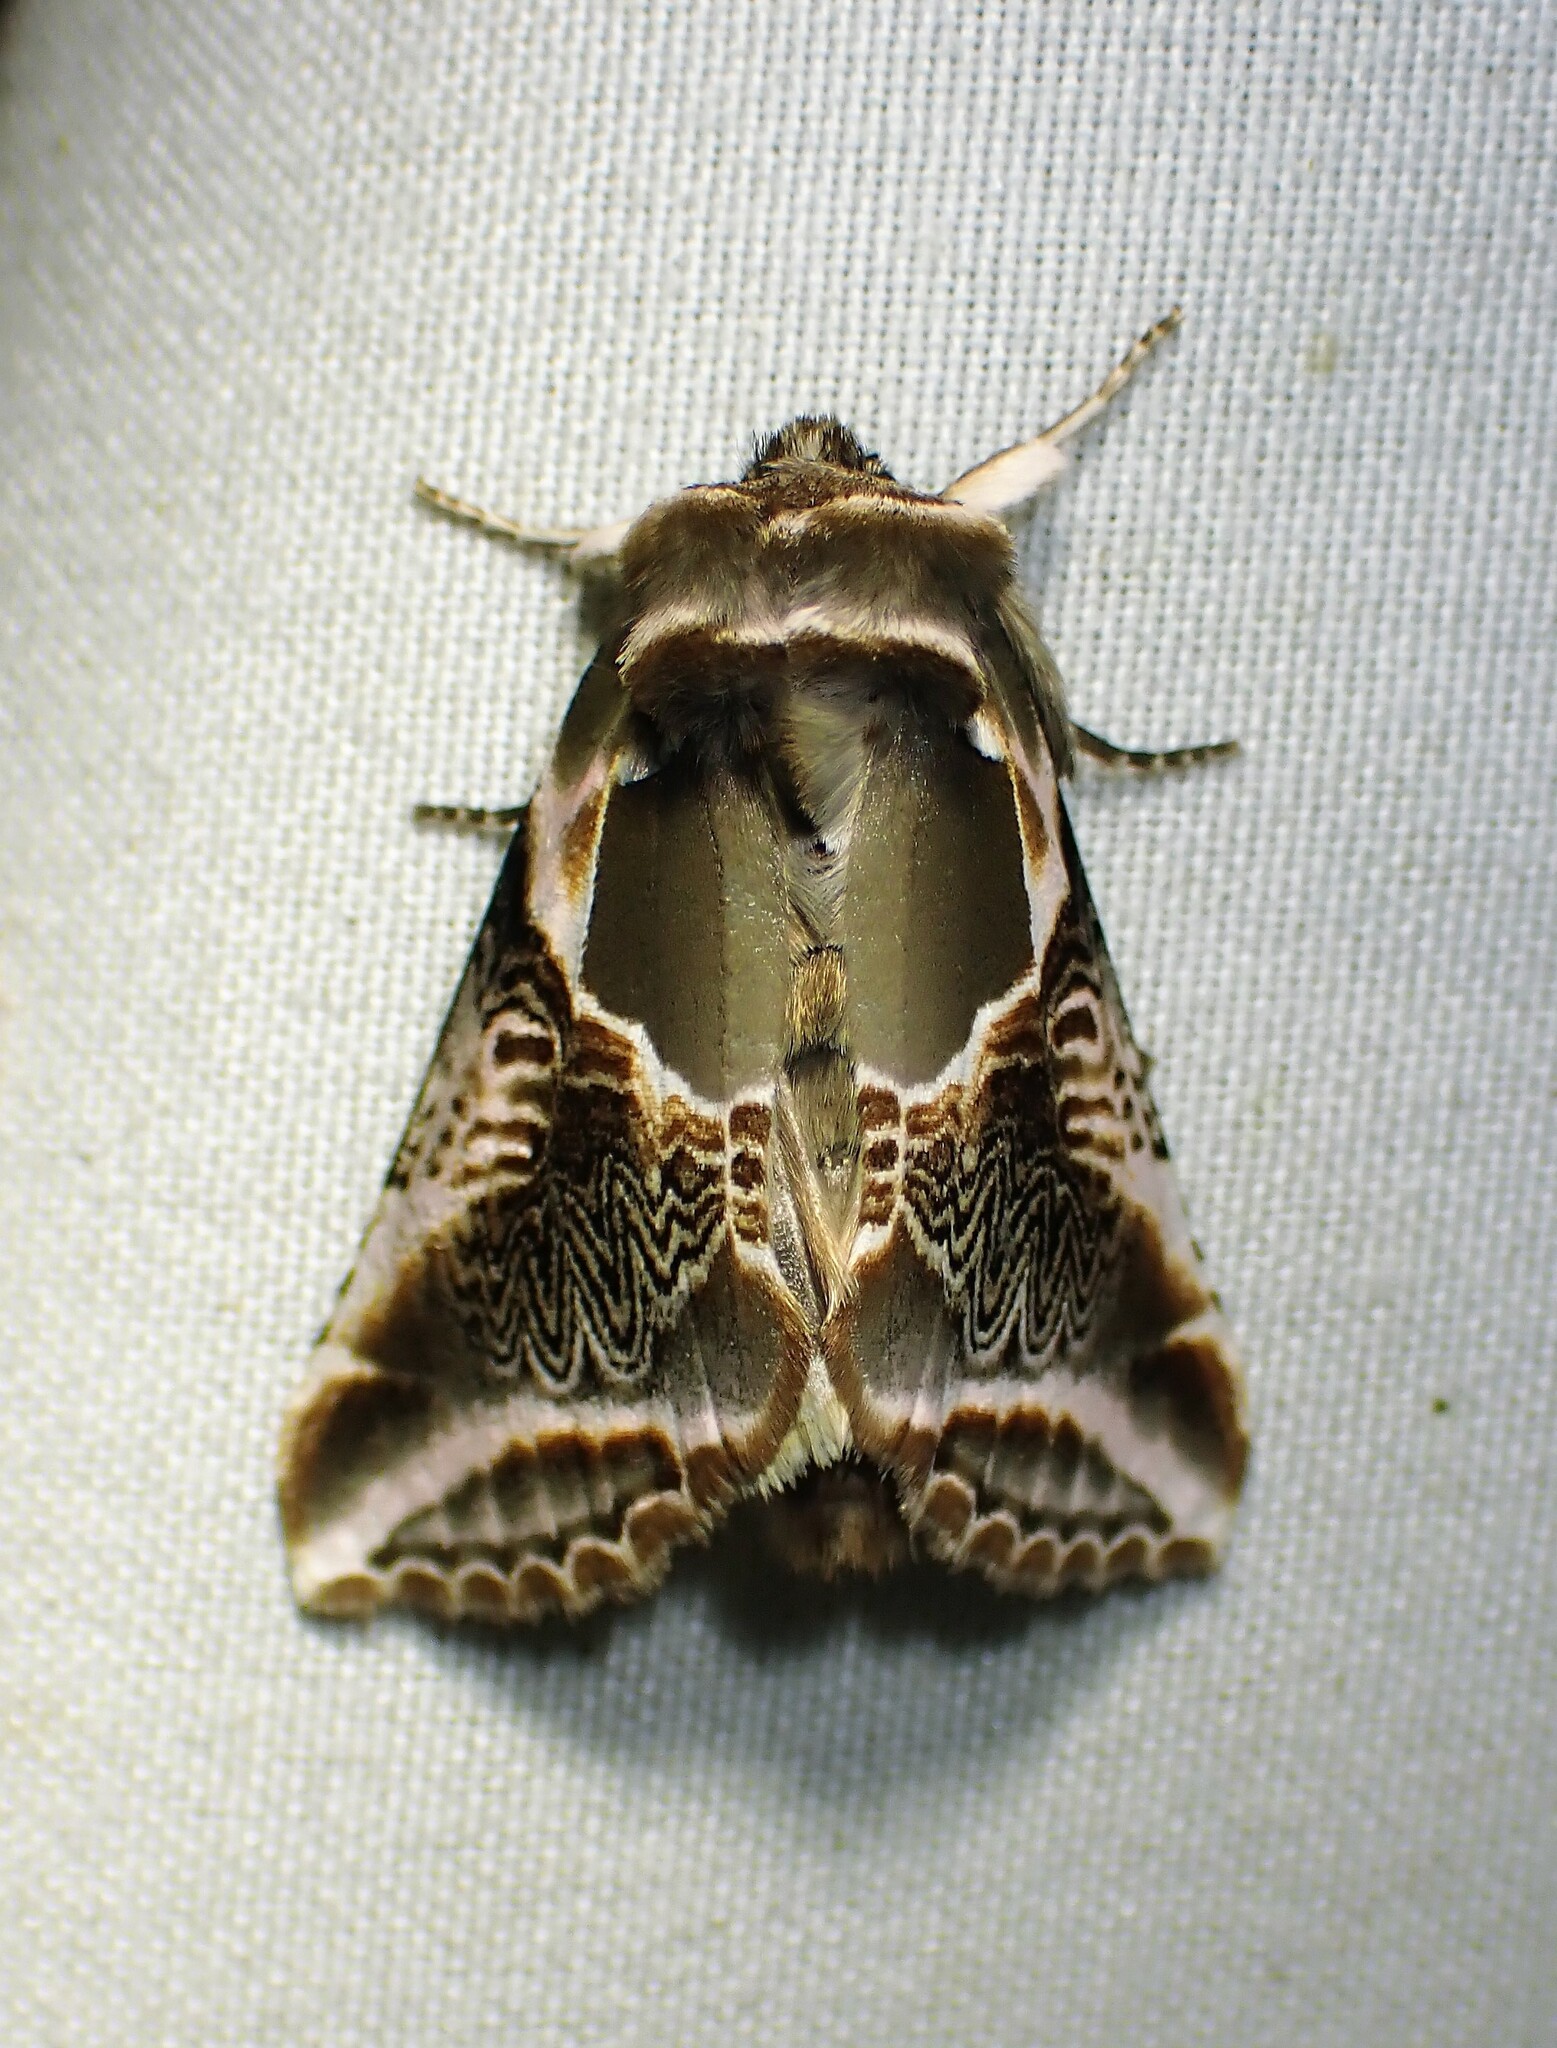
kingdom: Animalia
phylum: Arthropoda
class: Insecta
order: Lepidoptera
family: Drepanidae
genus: Habrosyne
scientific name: Habrosyne scripta
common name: Lettered habrosyne moth
